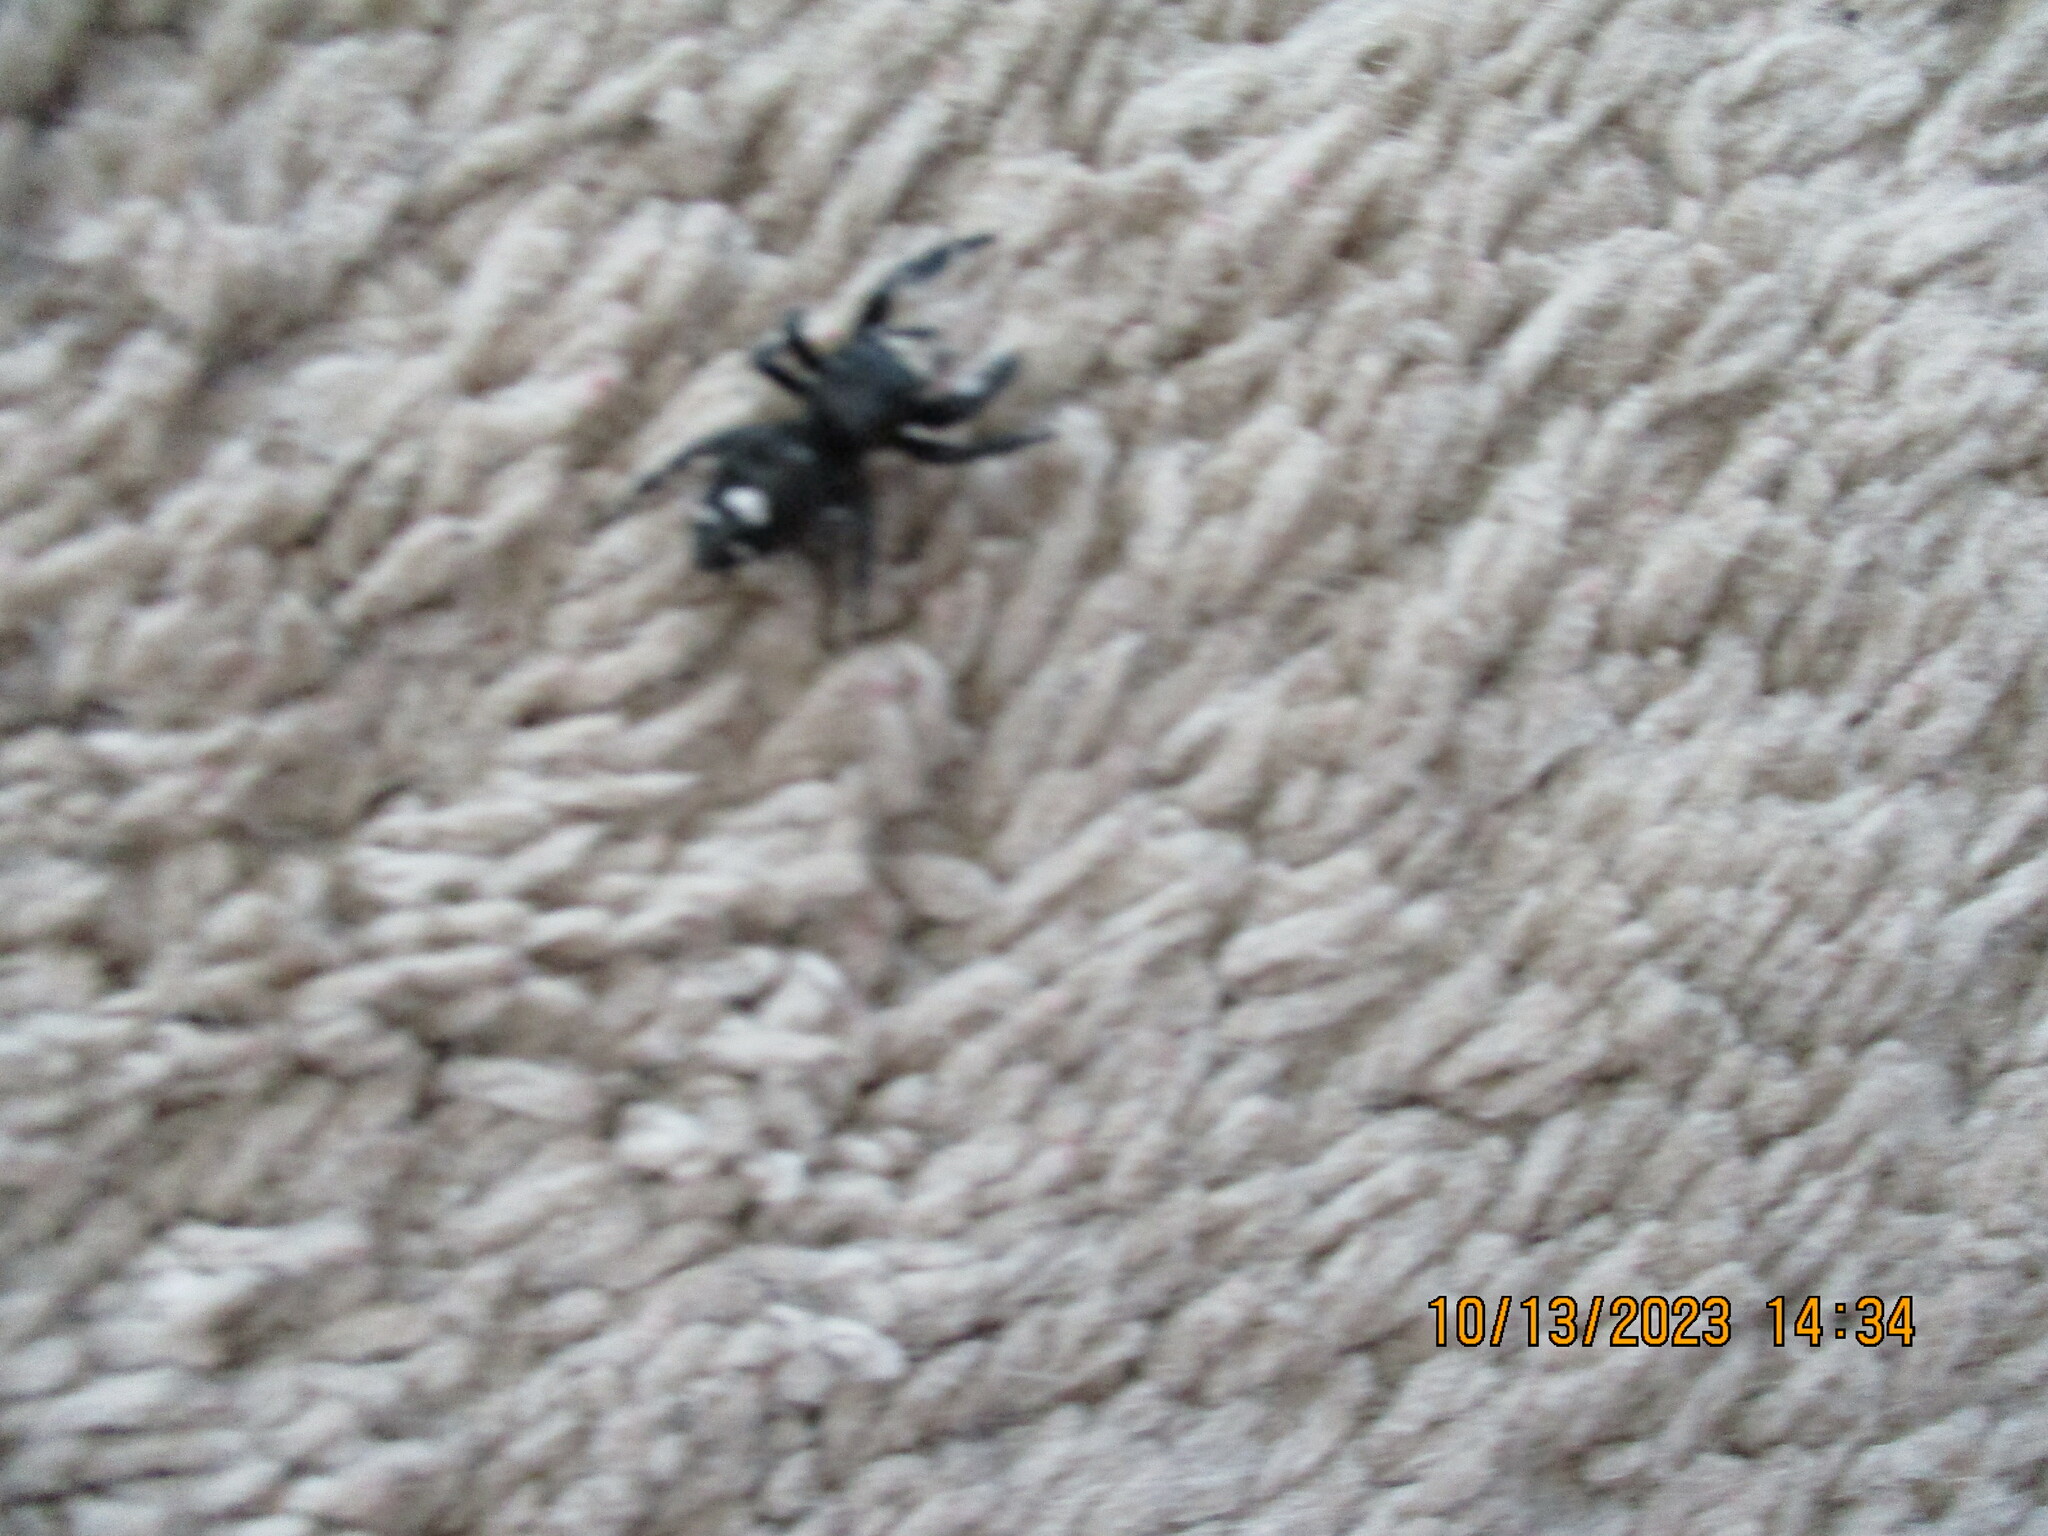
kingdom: Animalia
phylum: Arthropoda
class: Arachnida
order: Araneae
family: Salticidae
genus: Phidippus
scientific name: Phidippus audax
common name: Bold jumper
